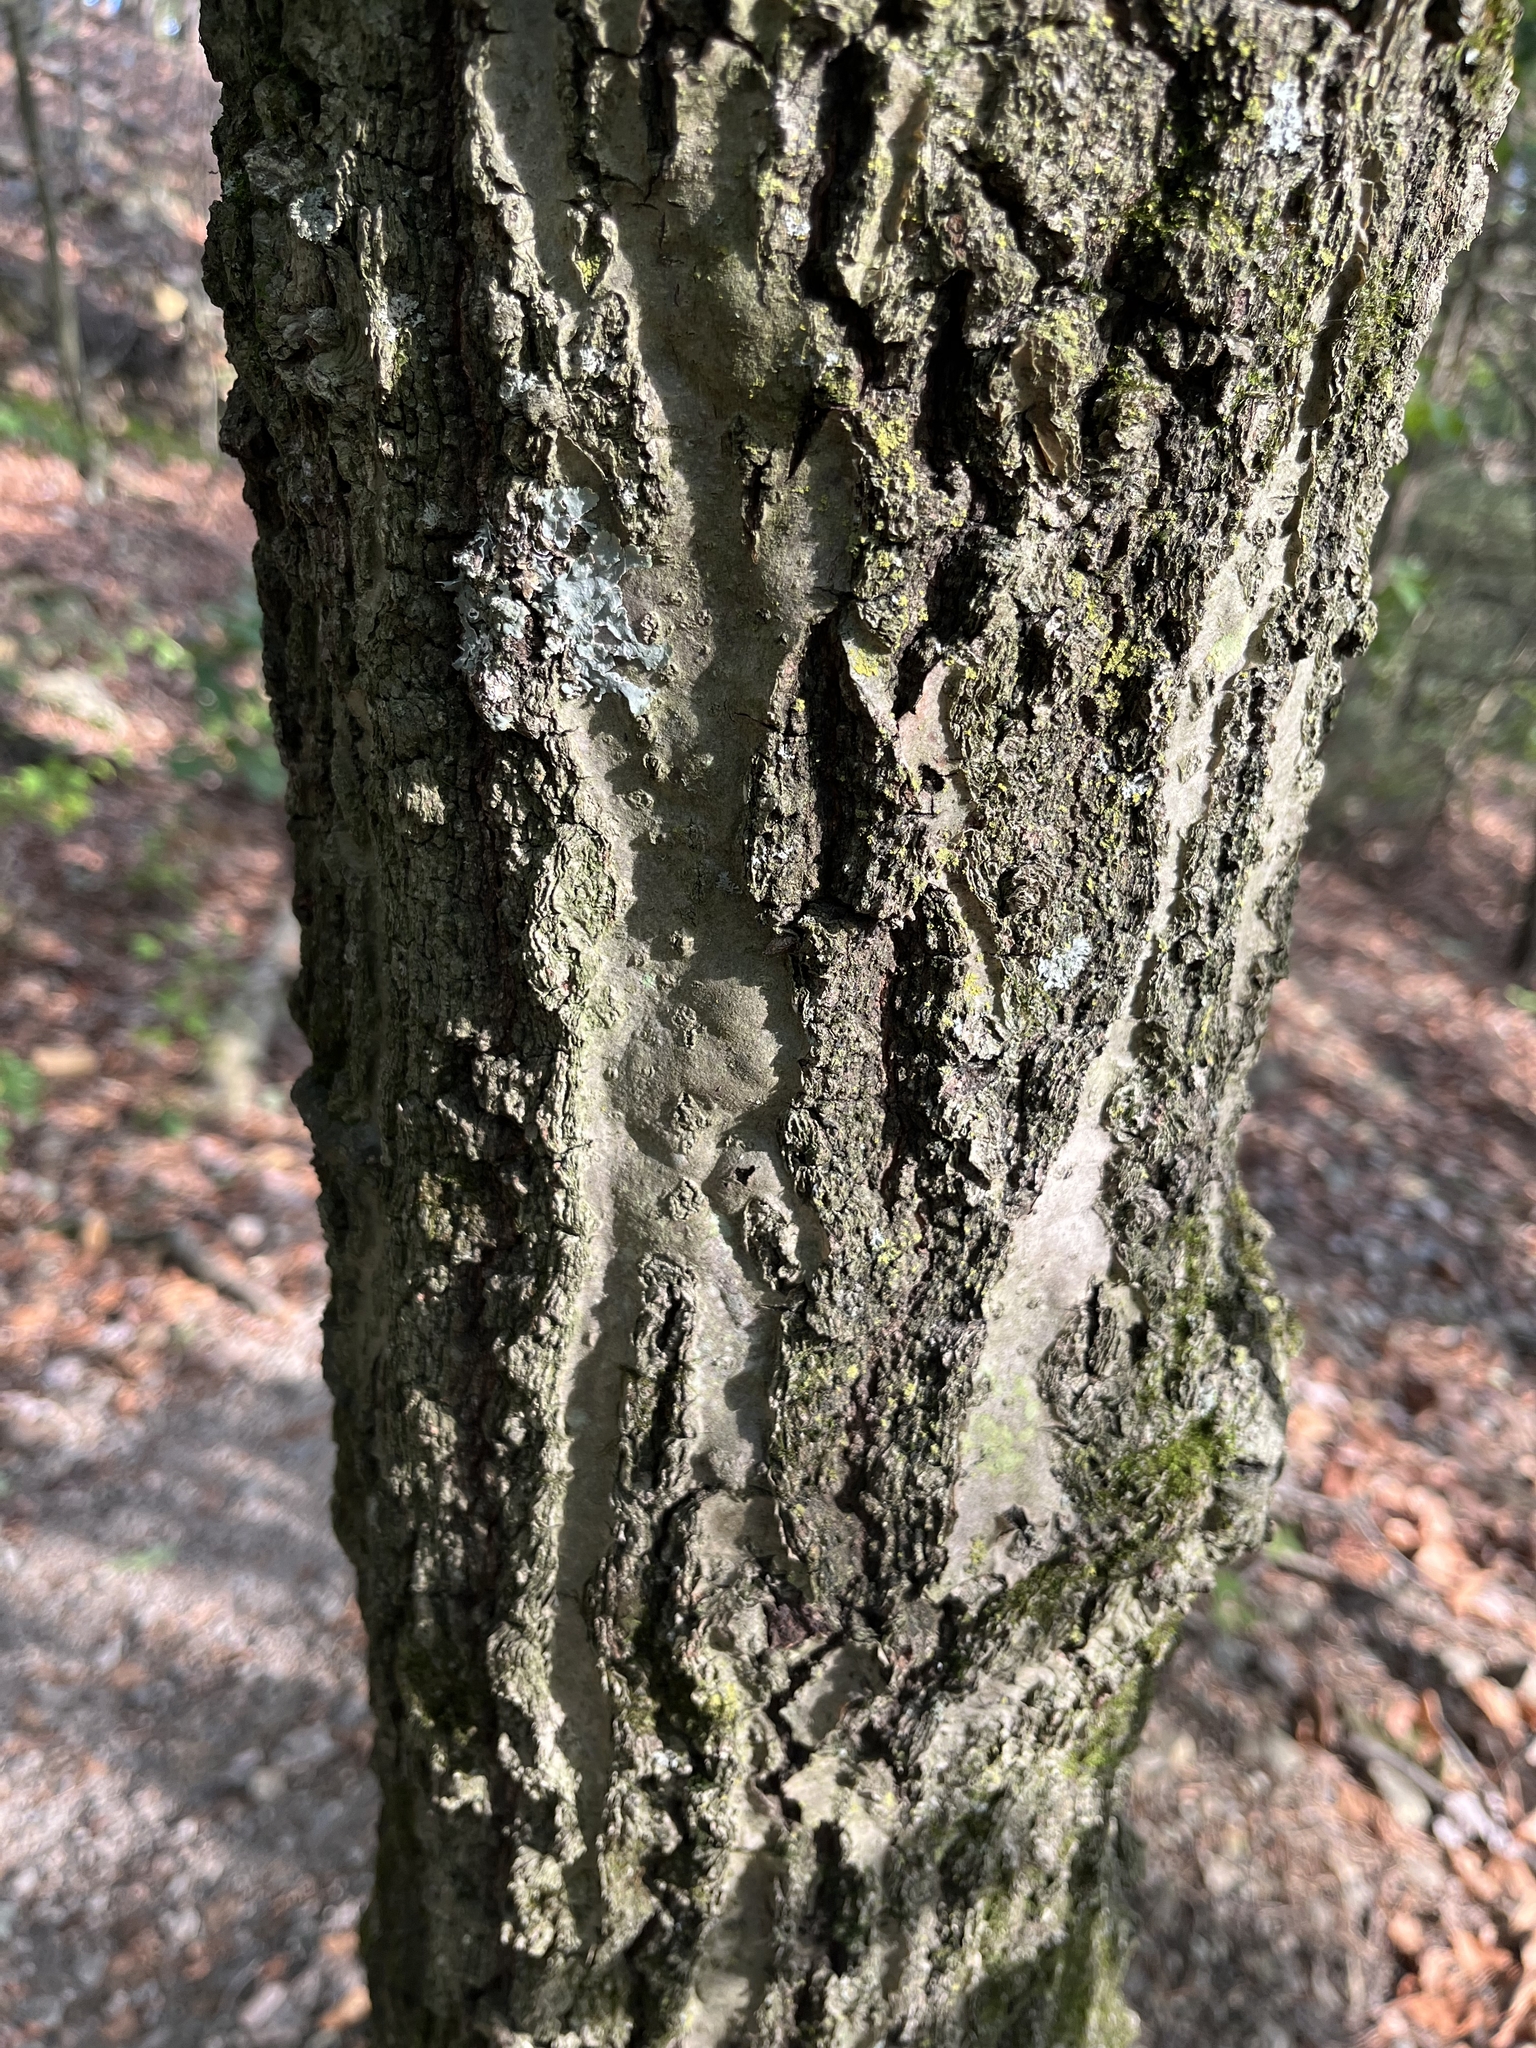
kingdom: Plantae
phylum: Tracheophyta
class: Magnoliopsida
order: Fagales
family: Fagaceae
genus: Quercus
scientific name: Quercus rubra
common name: Red oak
